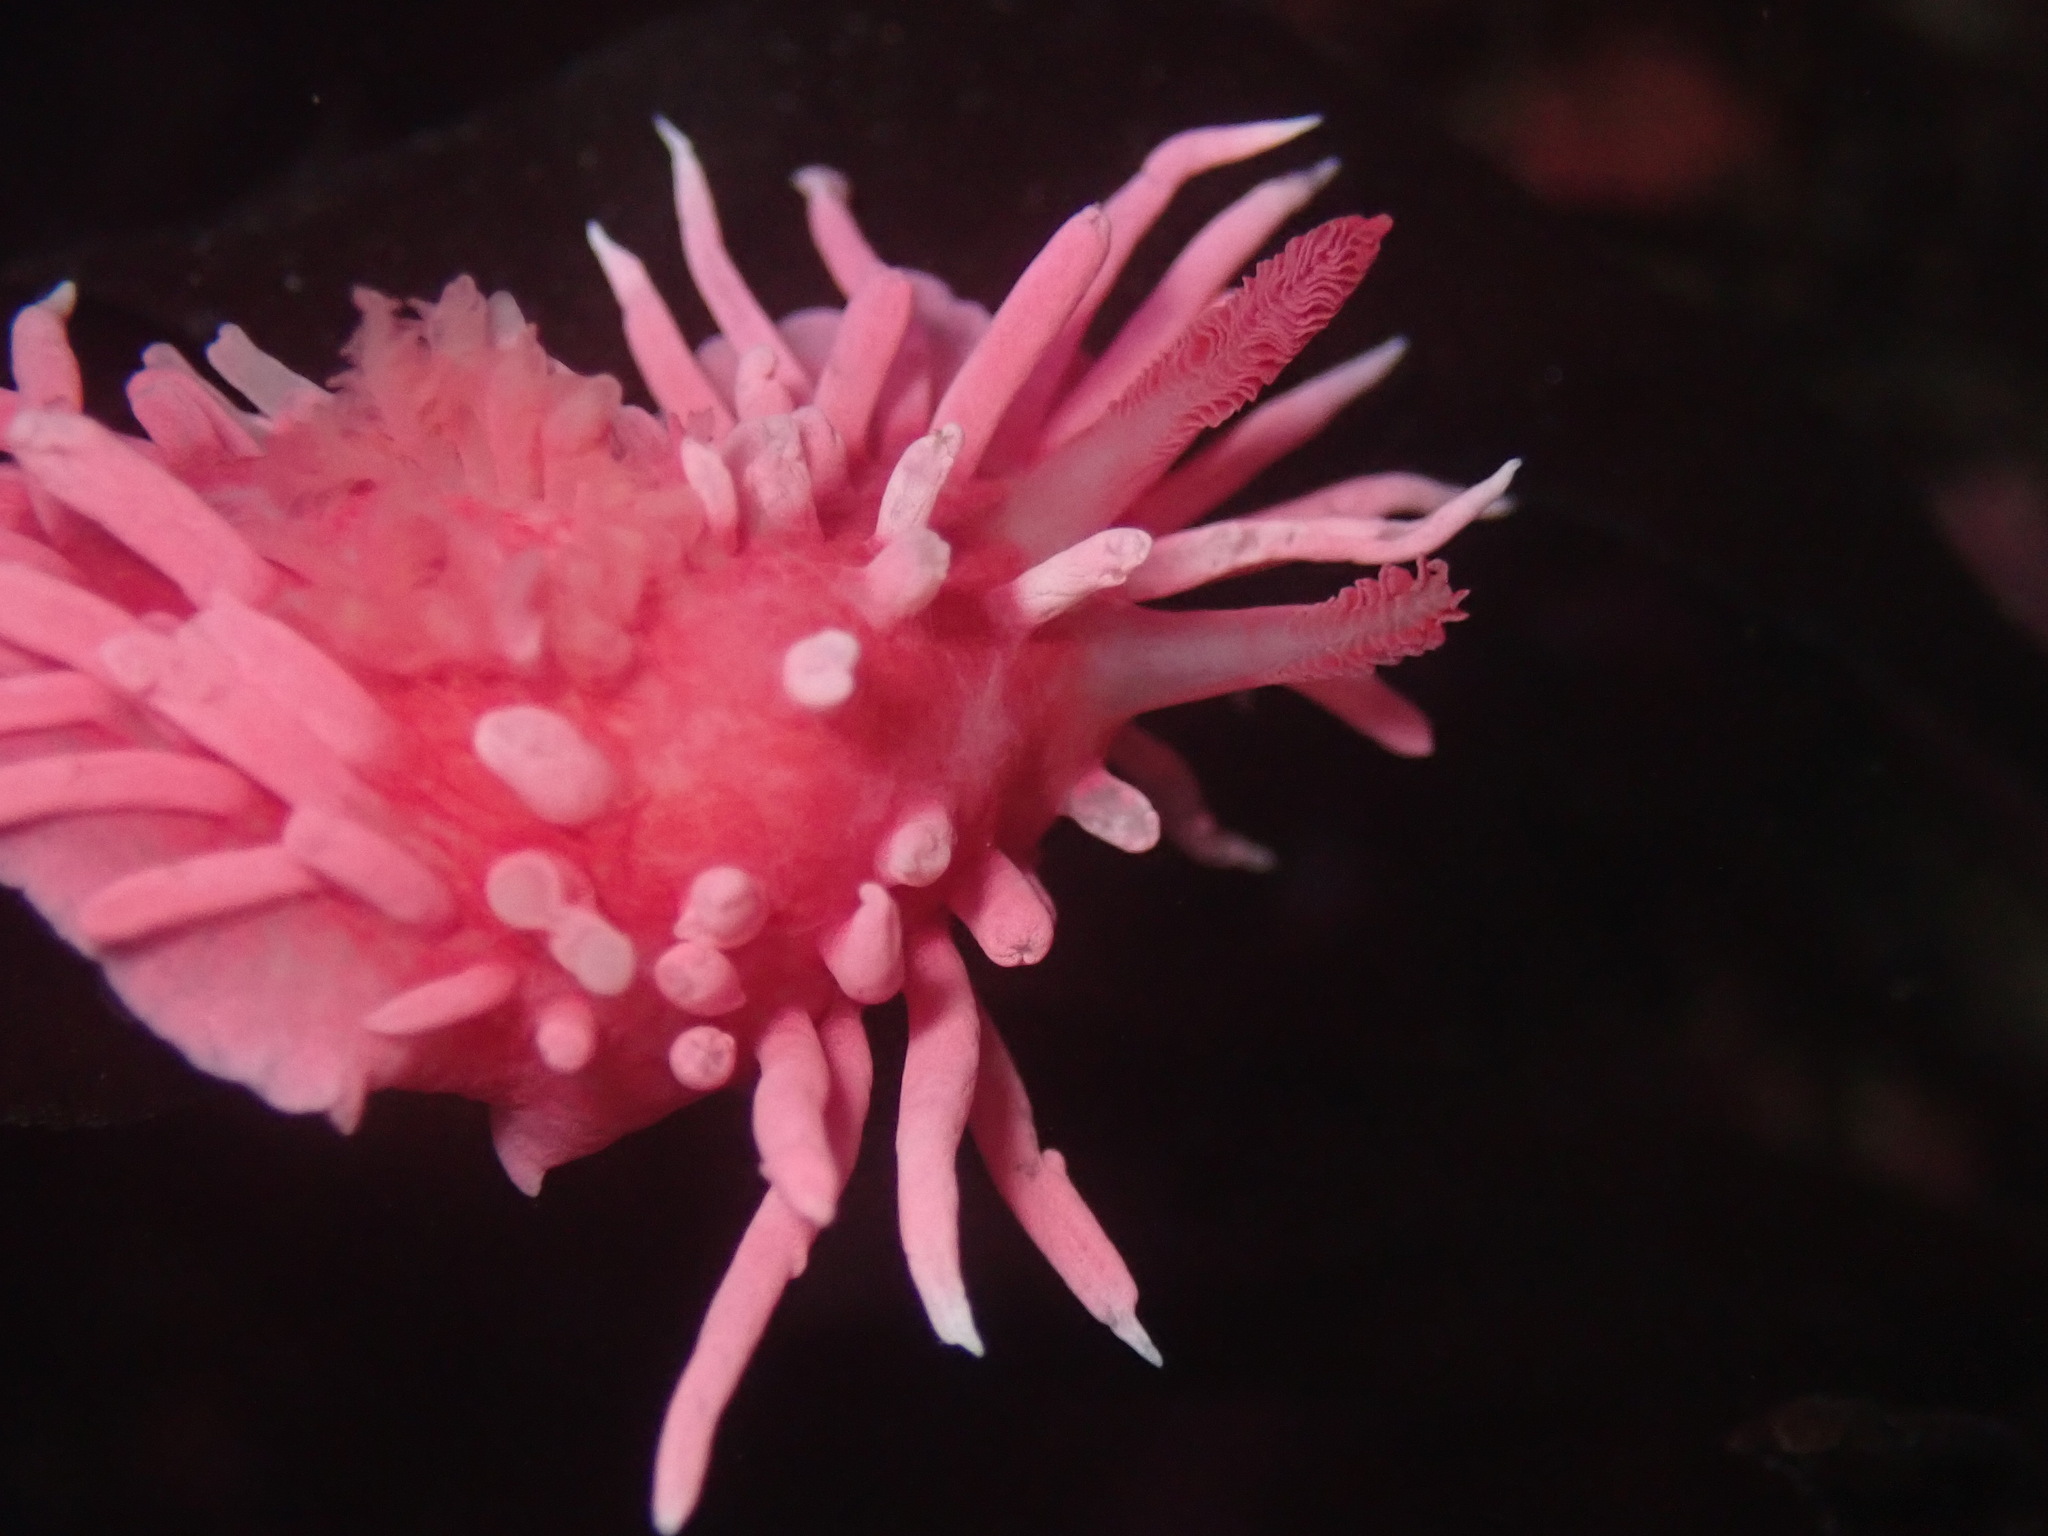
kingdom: Animalia
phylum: Mollusca
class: Gastropoda
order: Nudibranchia
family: Goniodorididae
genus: Okenia
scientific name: Okenia
